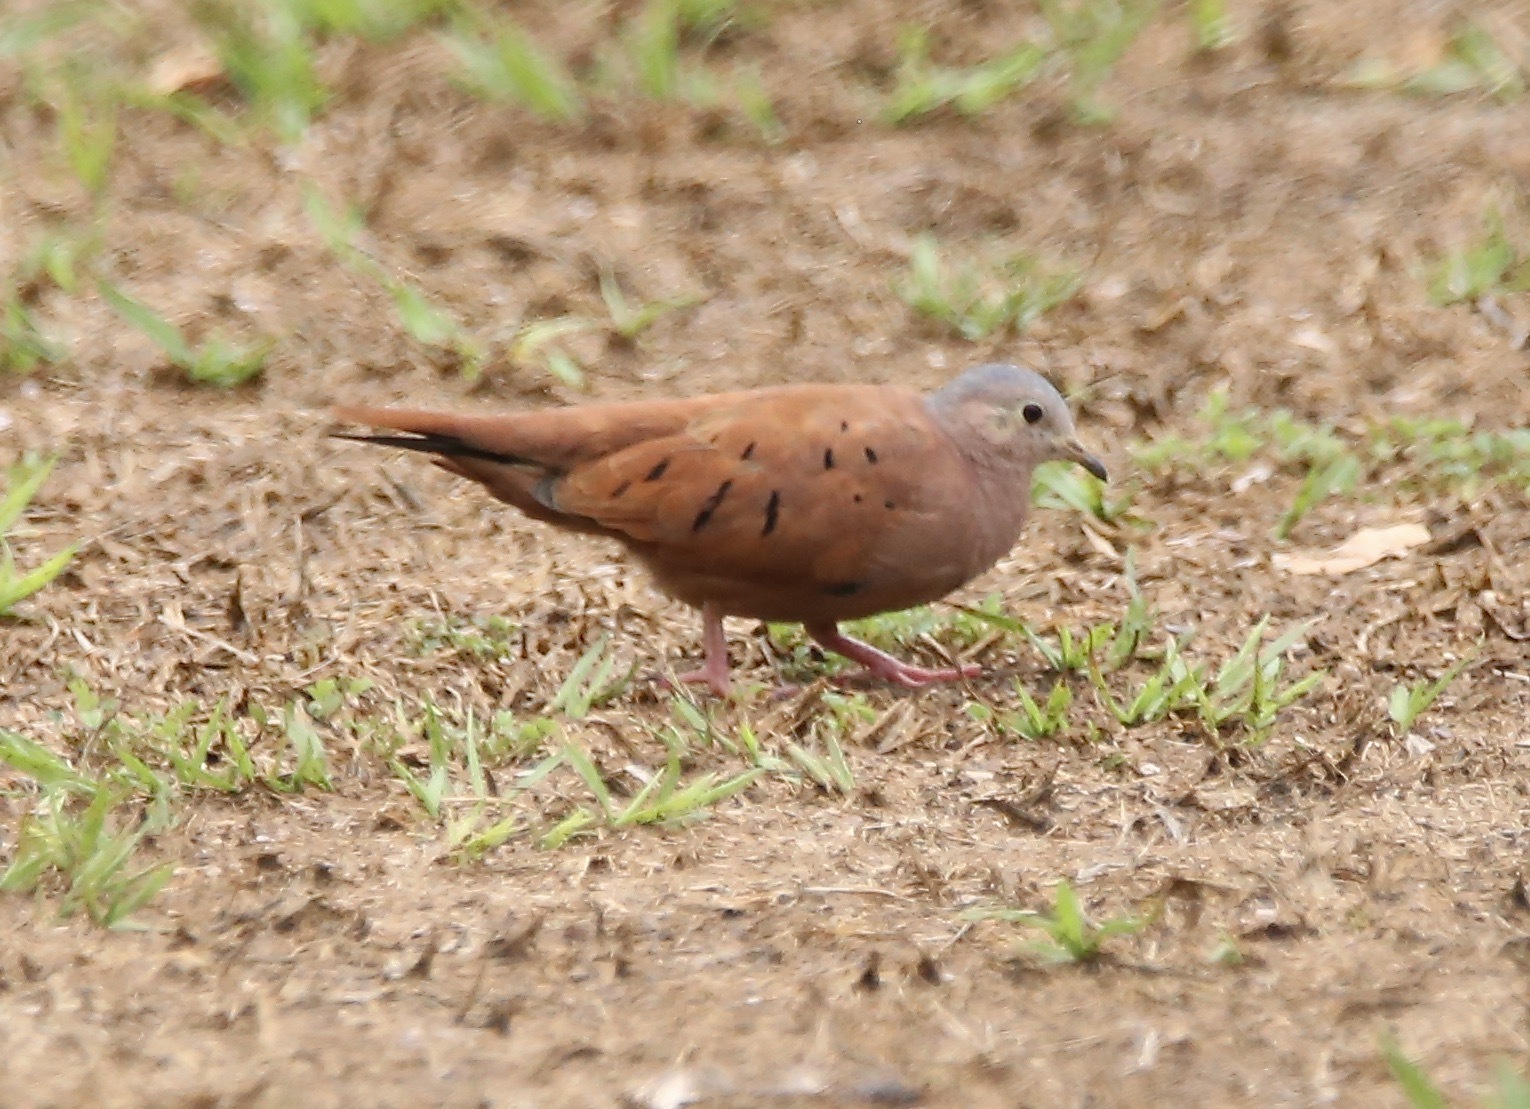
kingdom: Animalia
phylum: Chordata
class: Aves
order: Columbiformes
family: Columbidae
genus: Columbina
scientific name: Columbina talpacoti
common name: Ruddy ground dove
